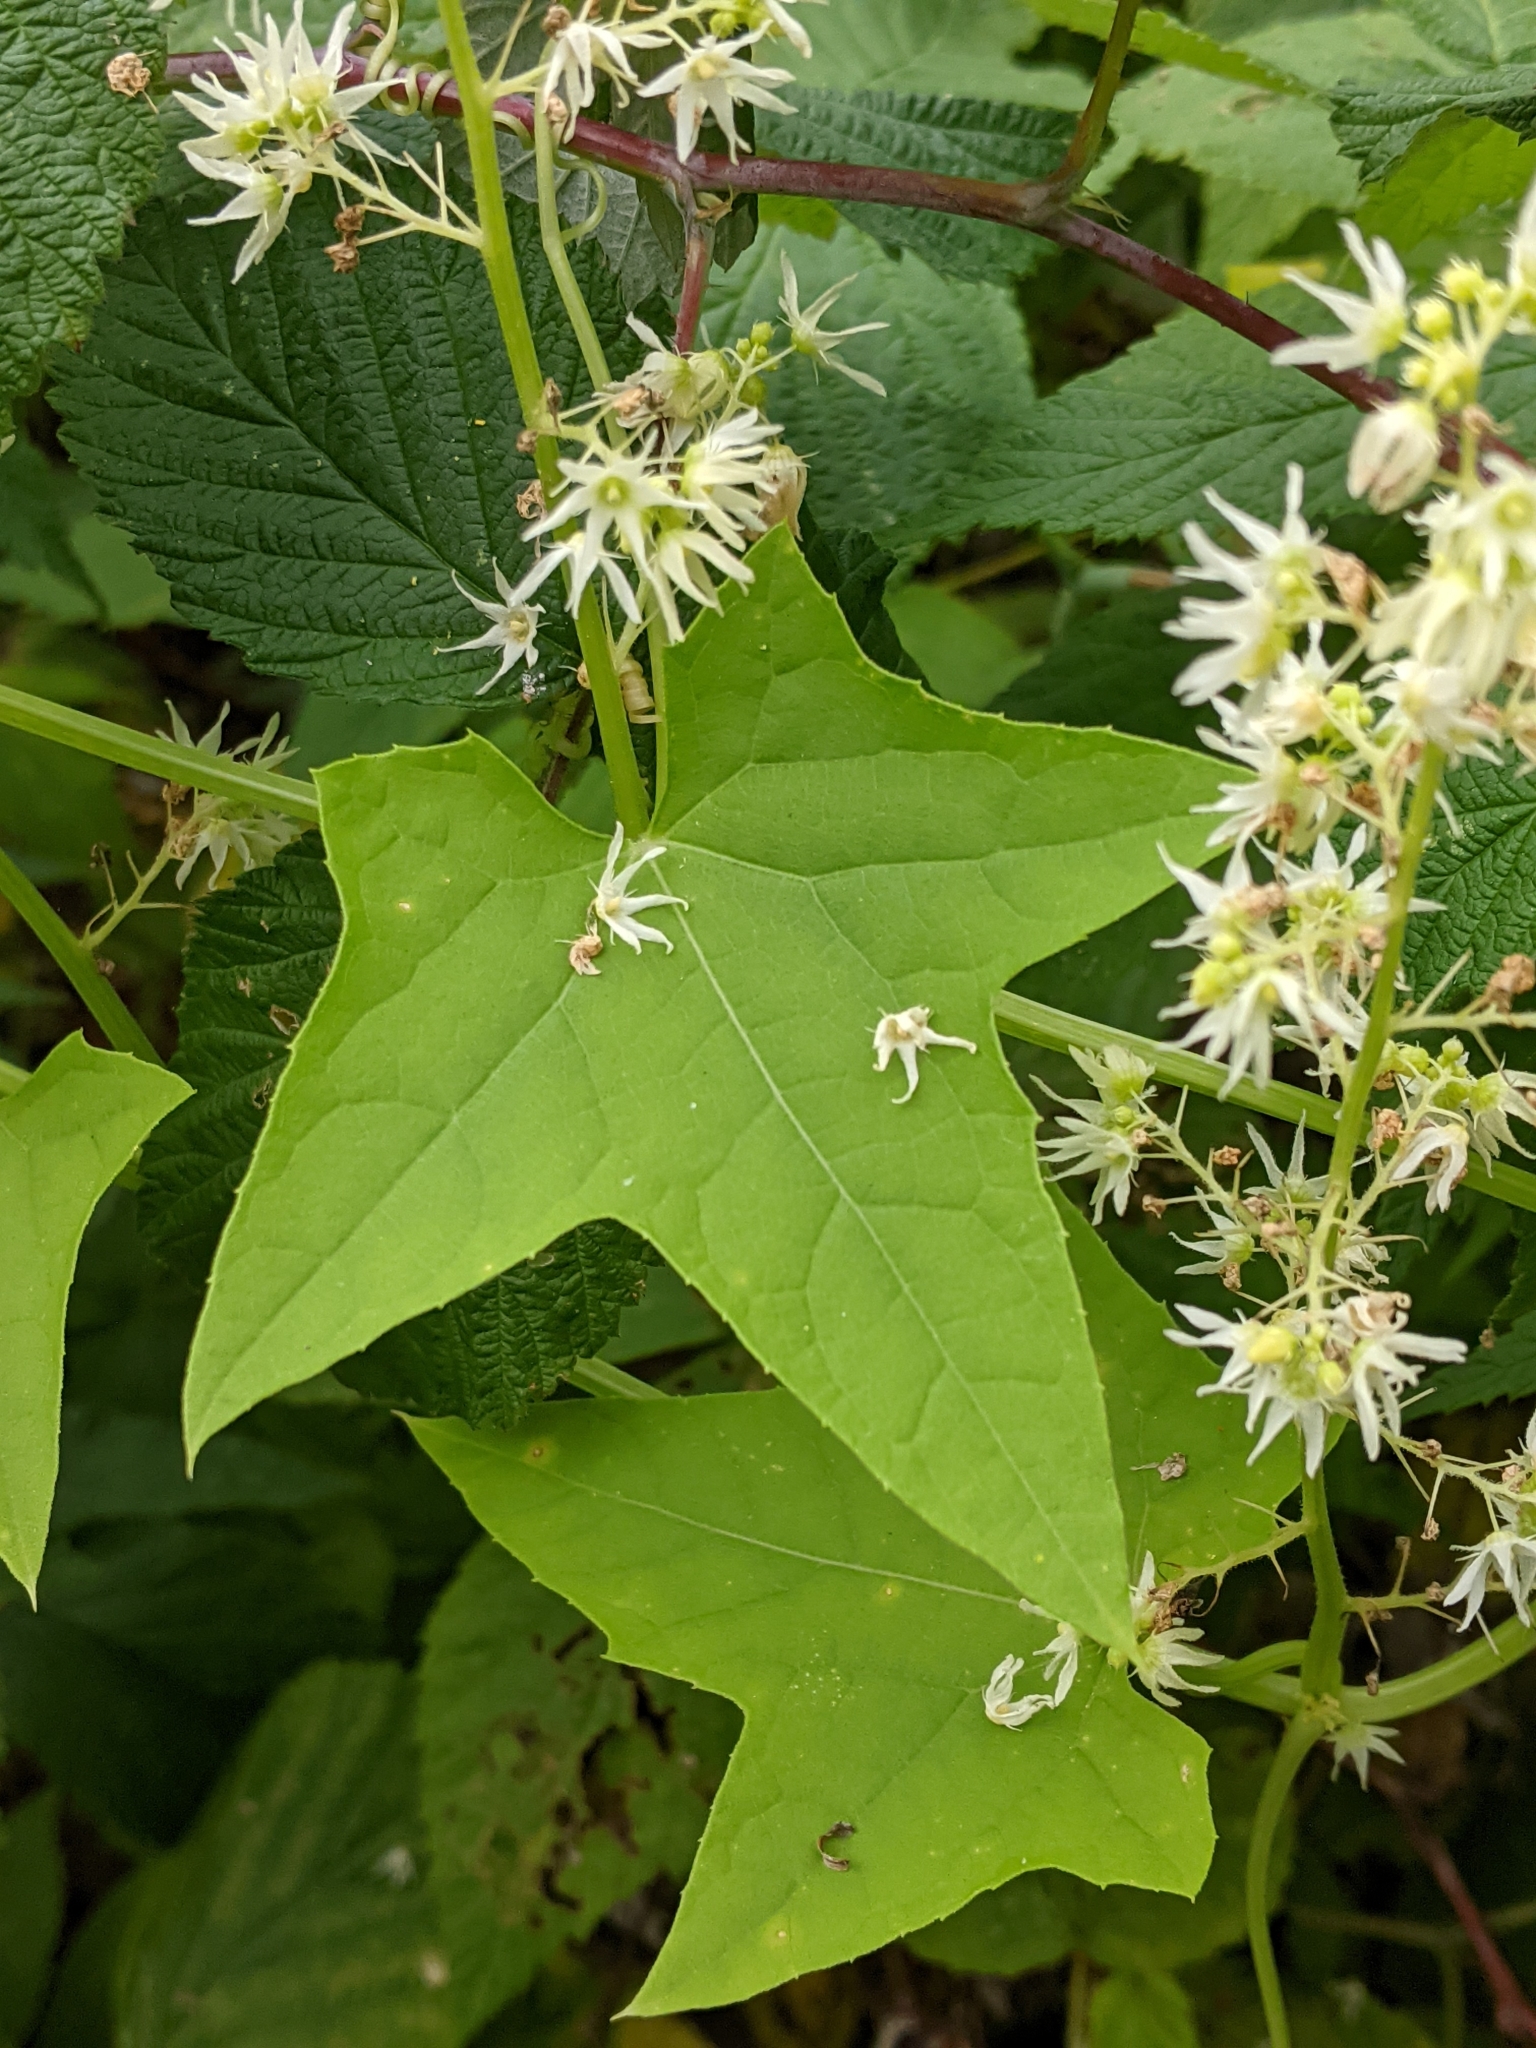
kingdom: Plantae
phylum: Tracheophyta
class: Magnoliopsida
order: Cucurbitales
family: Cucurbitaceae
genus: Echinocystis
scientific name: Echinocystis lobata
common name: Wild cucumber
